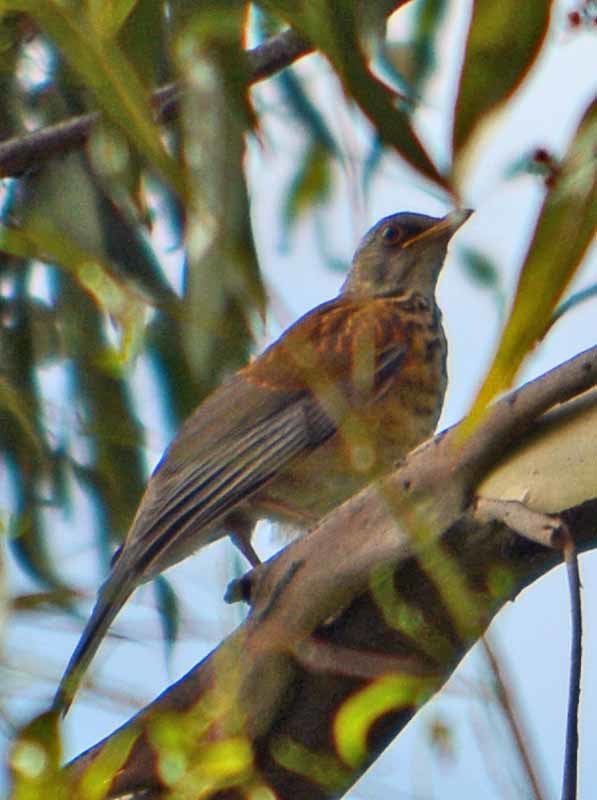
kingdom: Animalia
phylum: Chordata
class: Aves
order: Passeriformes
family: Turdidae
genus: Turdus
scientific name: Turdus rufopalliatus
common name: Rufous-backed robin
